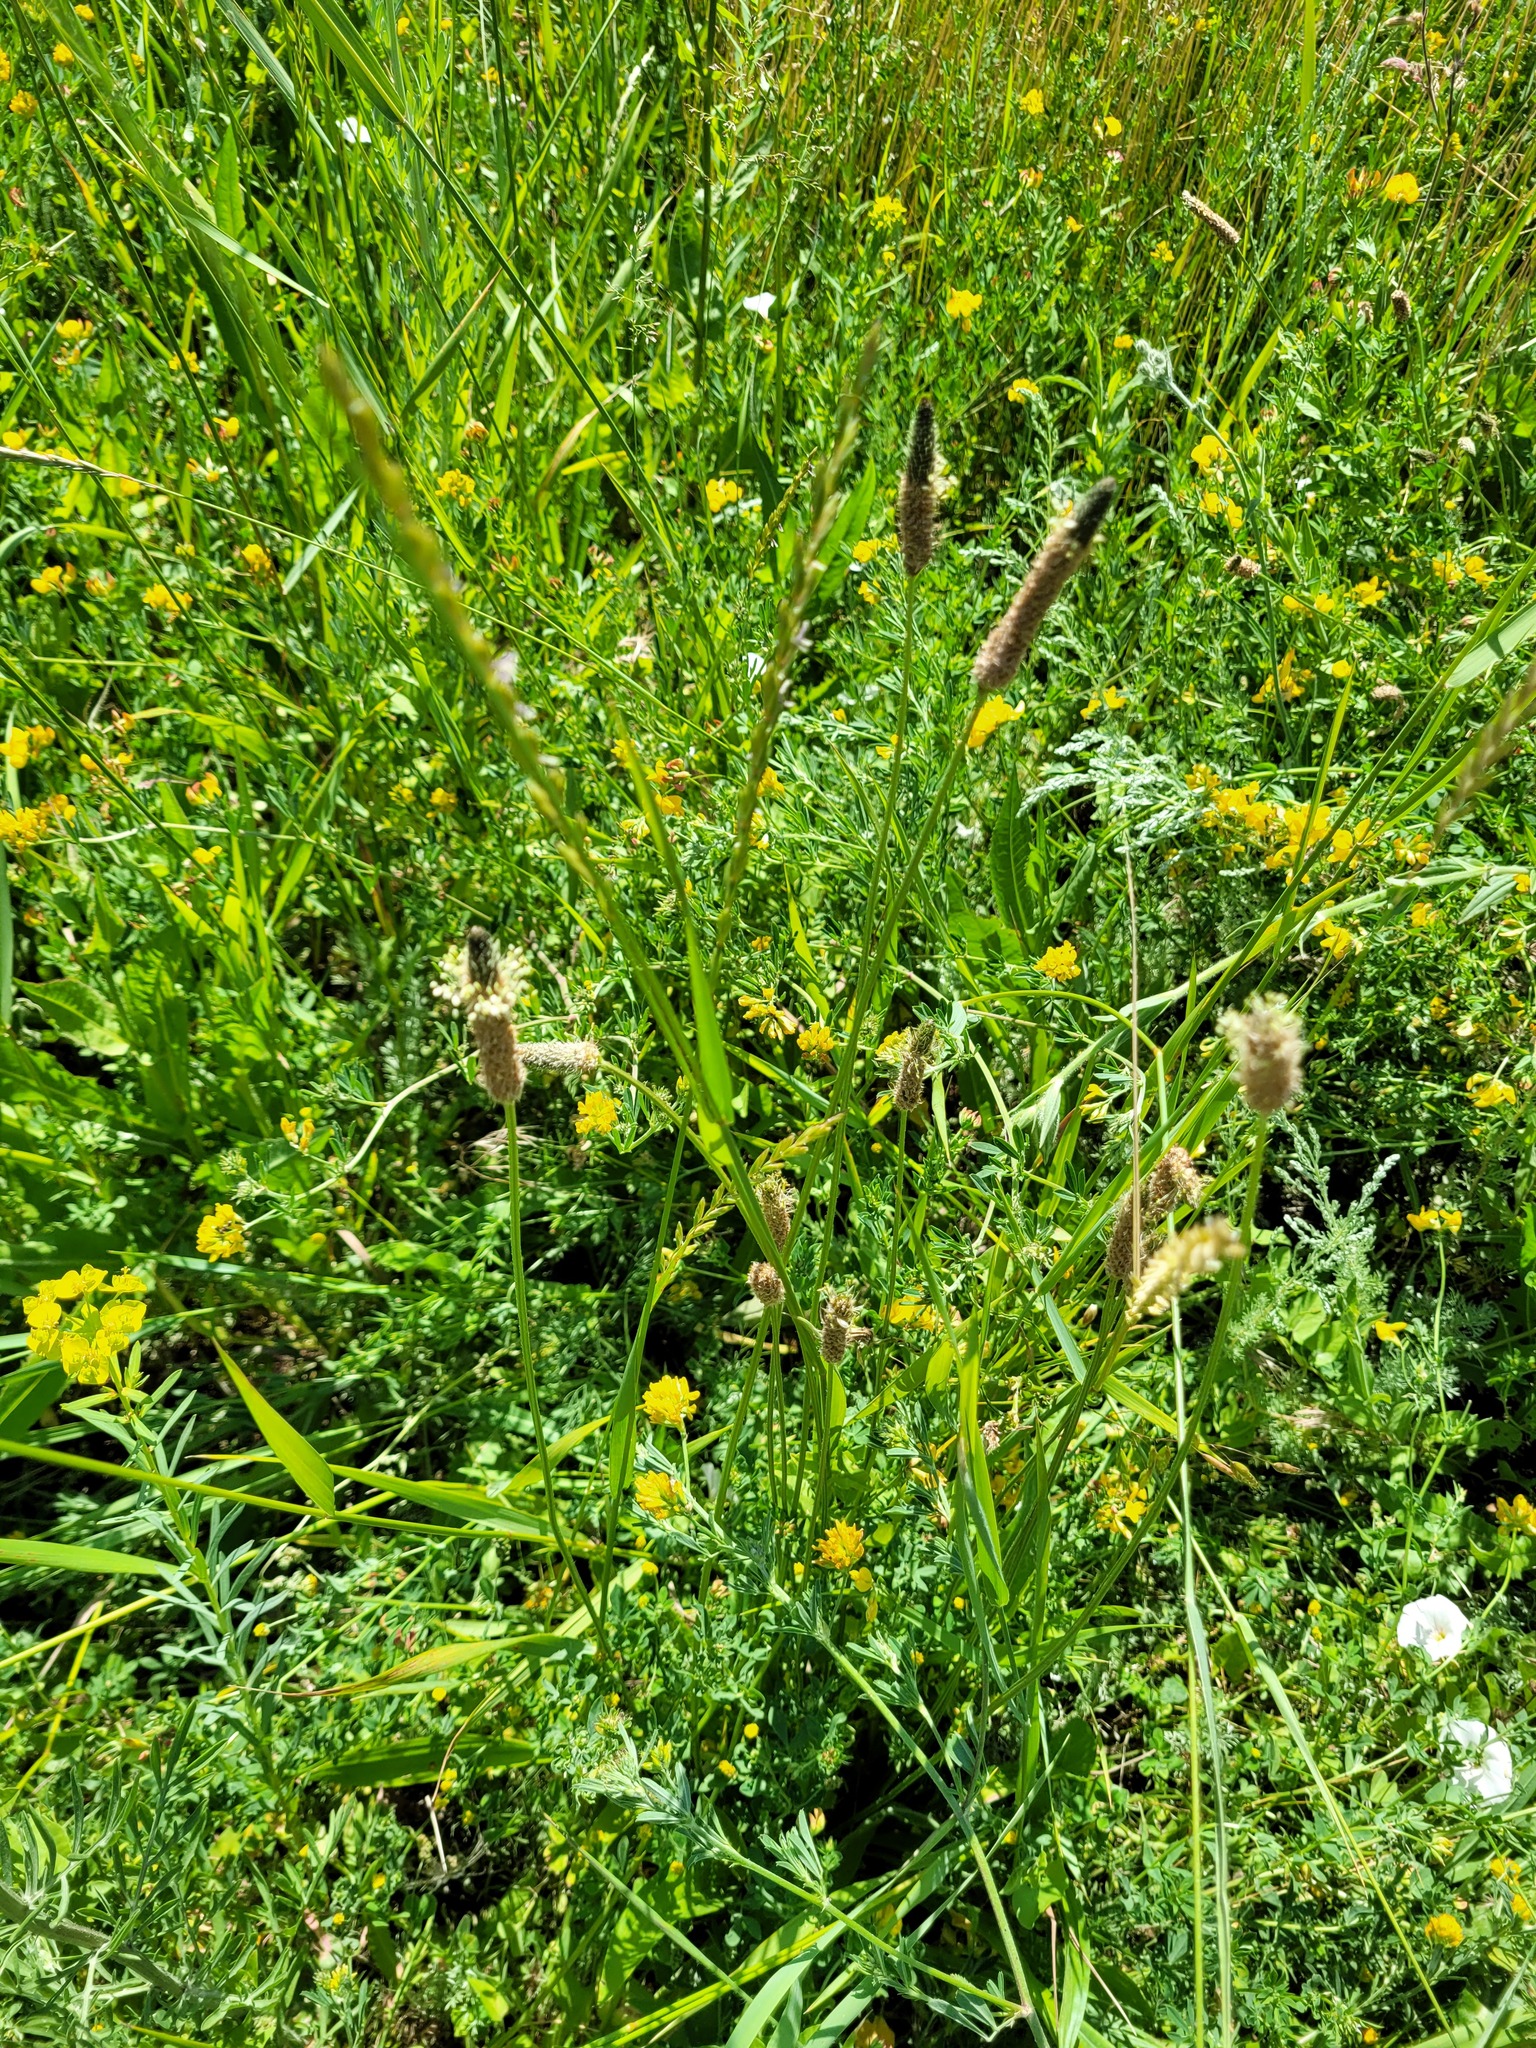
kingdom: Plantae
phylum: Tracheophyta
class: Magnoliopsida
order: Lamiales
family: Plantaginaceae
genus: Plantago
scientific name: Plantago lanceolata
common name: Ribwort plantain
